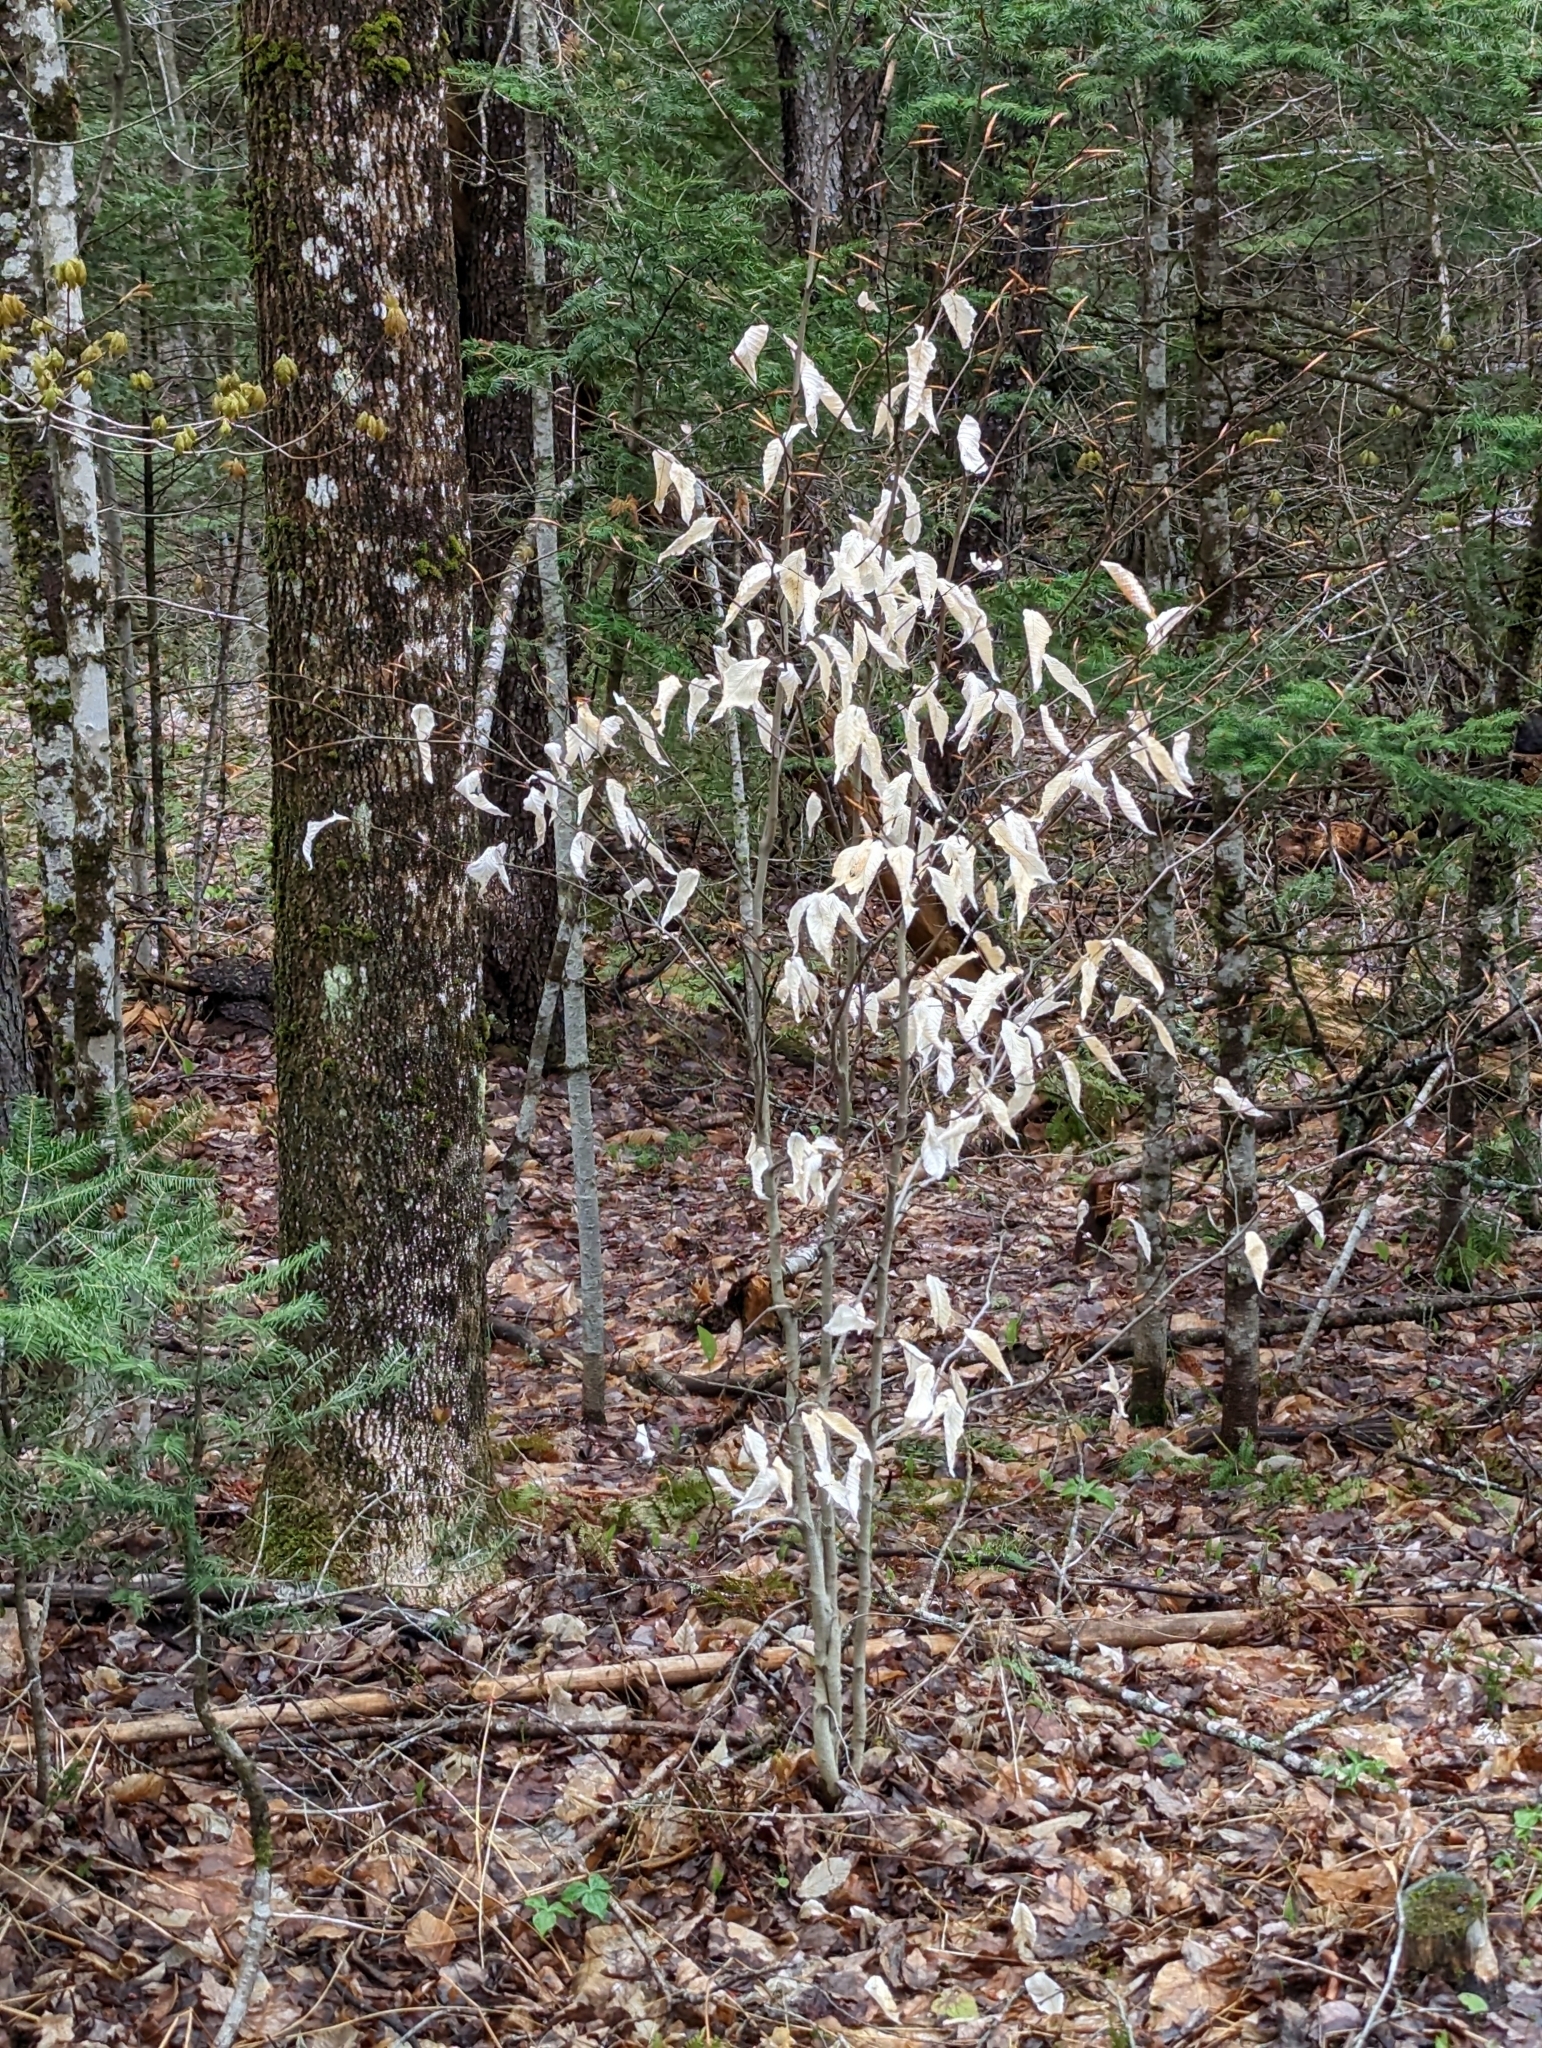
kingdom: Plantae
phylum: Tracheophyta
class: Magnoliopsida
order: Fagales
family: Fagaceae
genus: Fagus
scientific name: Fagus grandifolia
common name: American beech
